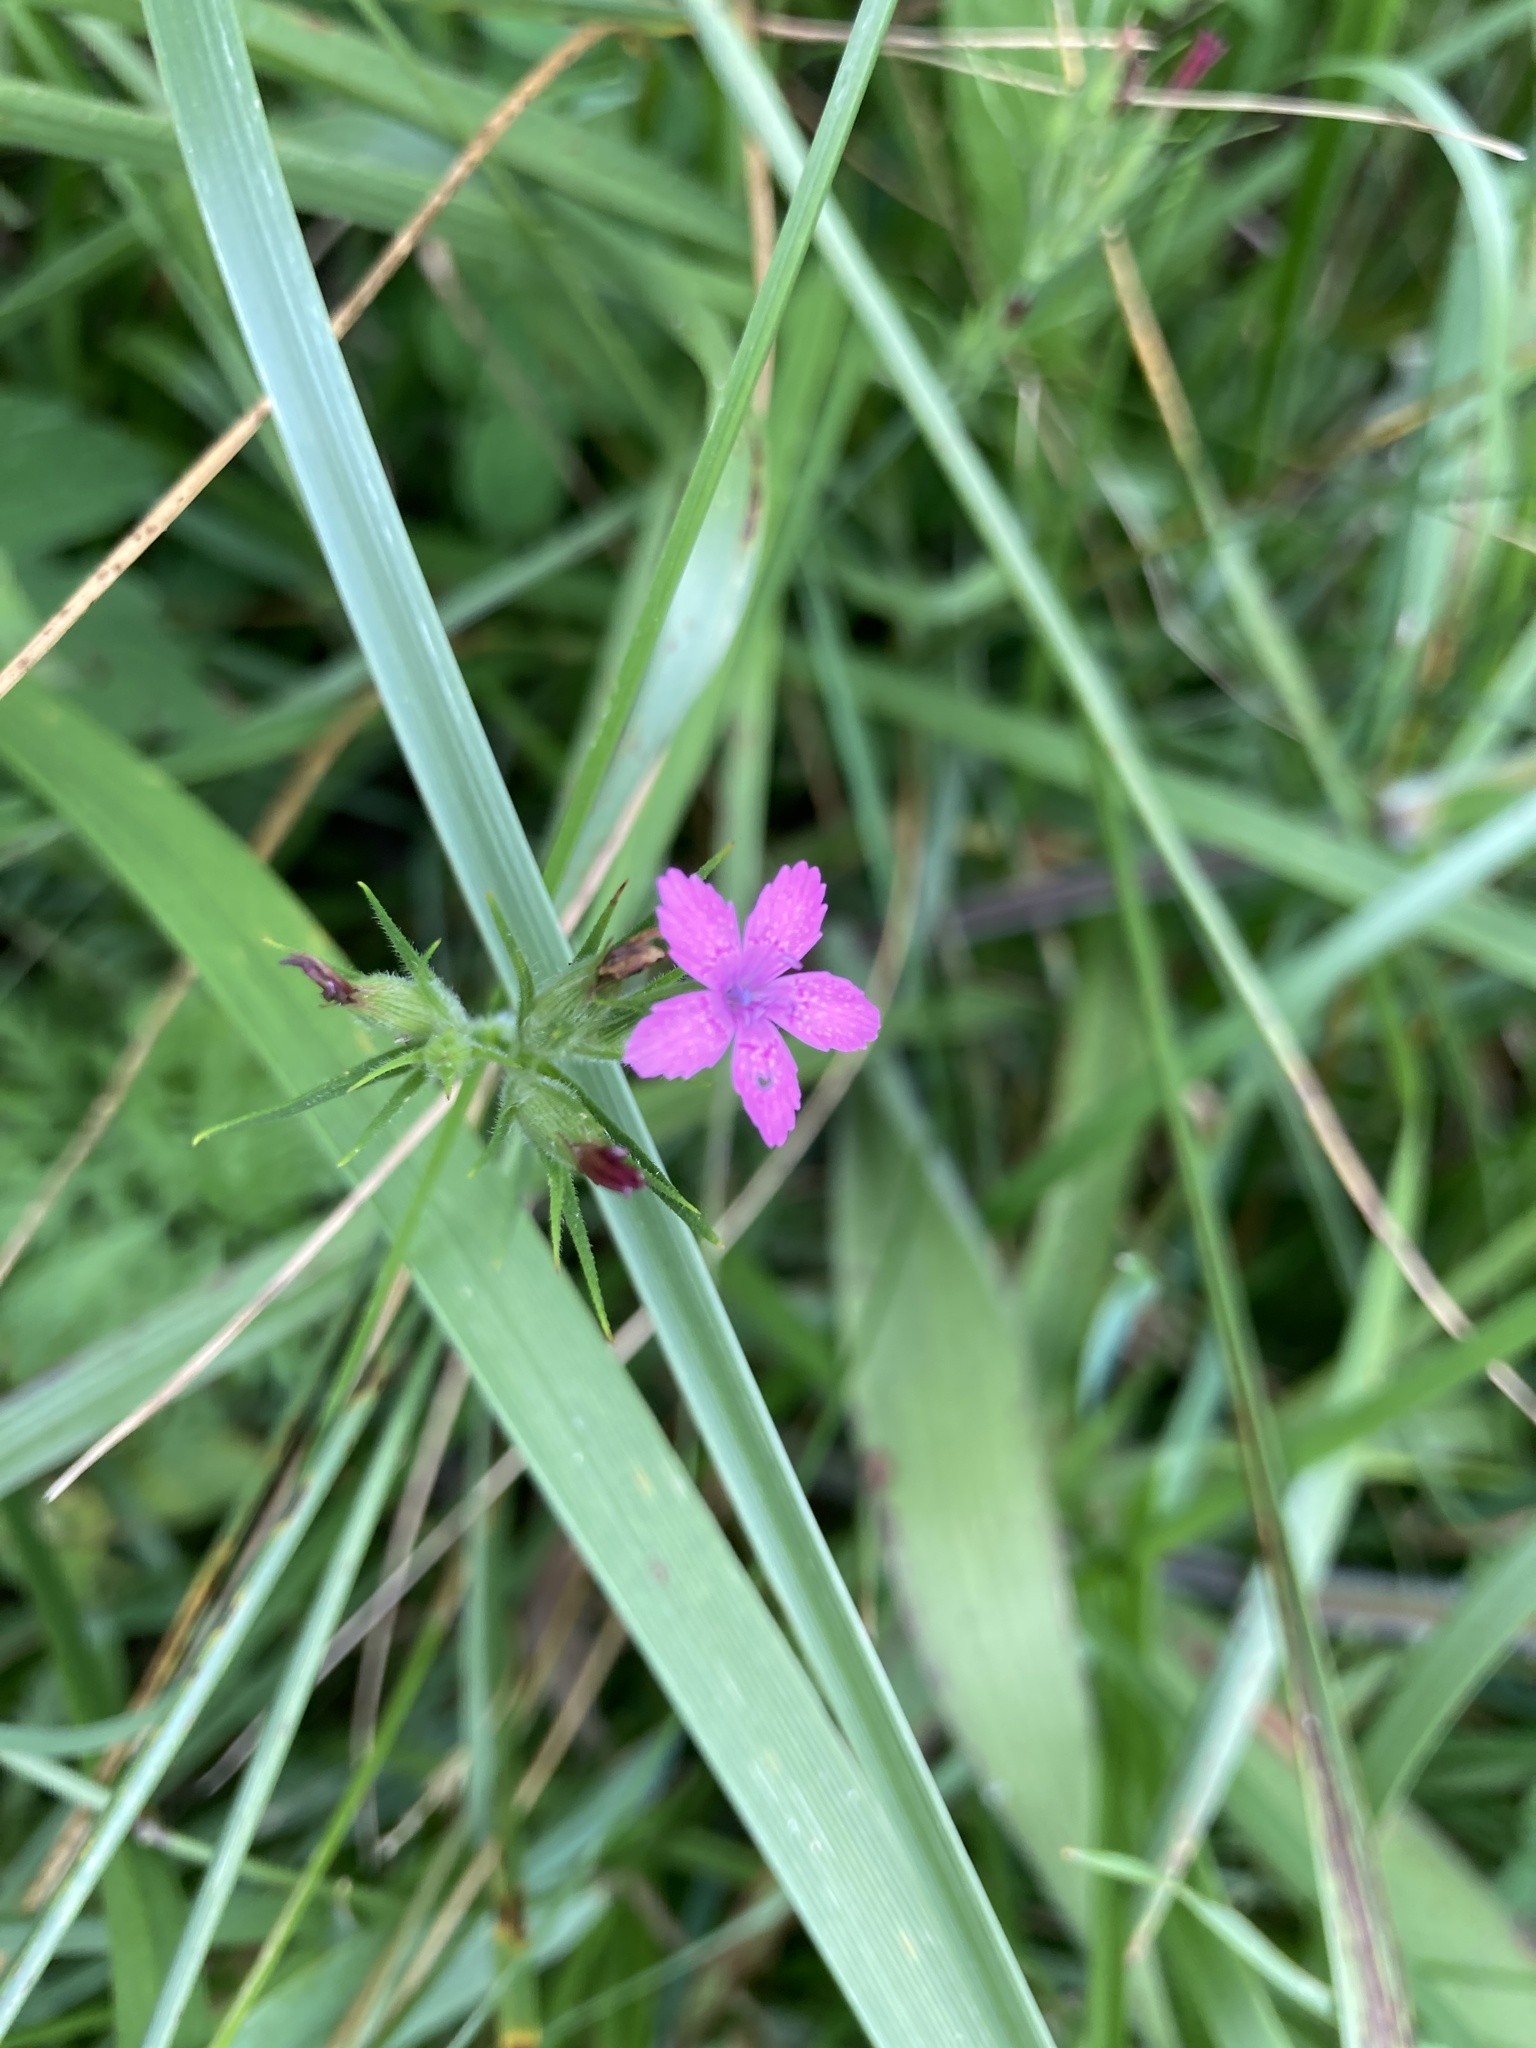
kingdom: Plantae
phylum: Tracheophyta
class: Magnoliopsida
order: Caryophyllales
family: Caryophyllaceae
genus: Dianthus
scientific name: Dianthus armeria
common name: Deptford pink
